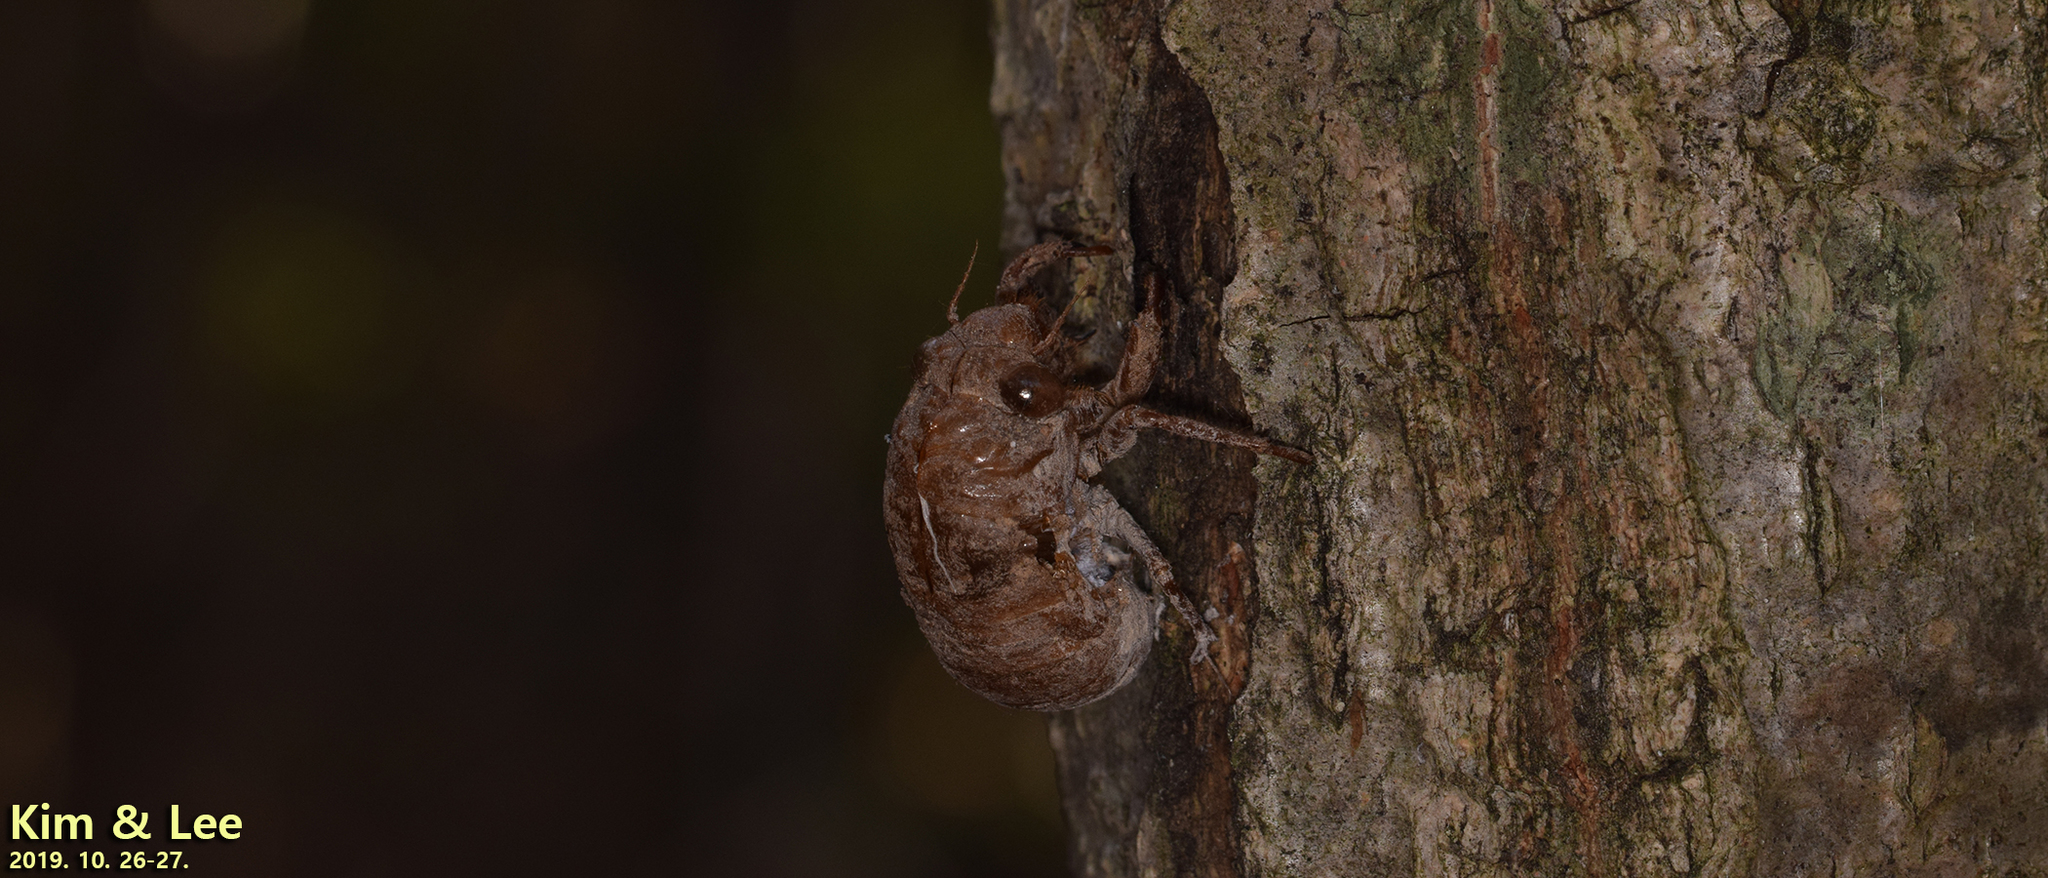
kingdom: Animalia
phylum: Arthropoda
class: Insecta
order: Hemiptera
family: Cicadidae
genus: Suisha
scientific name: Suisha coreana
